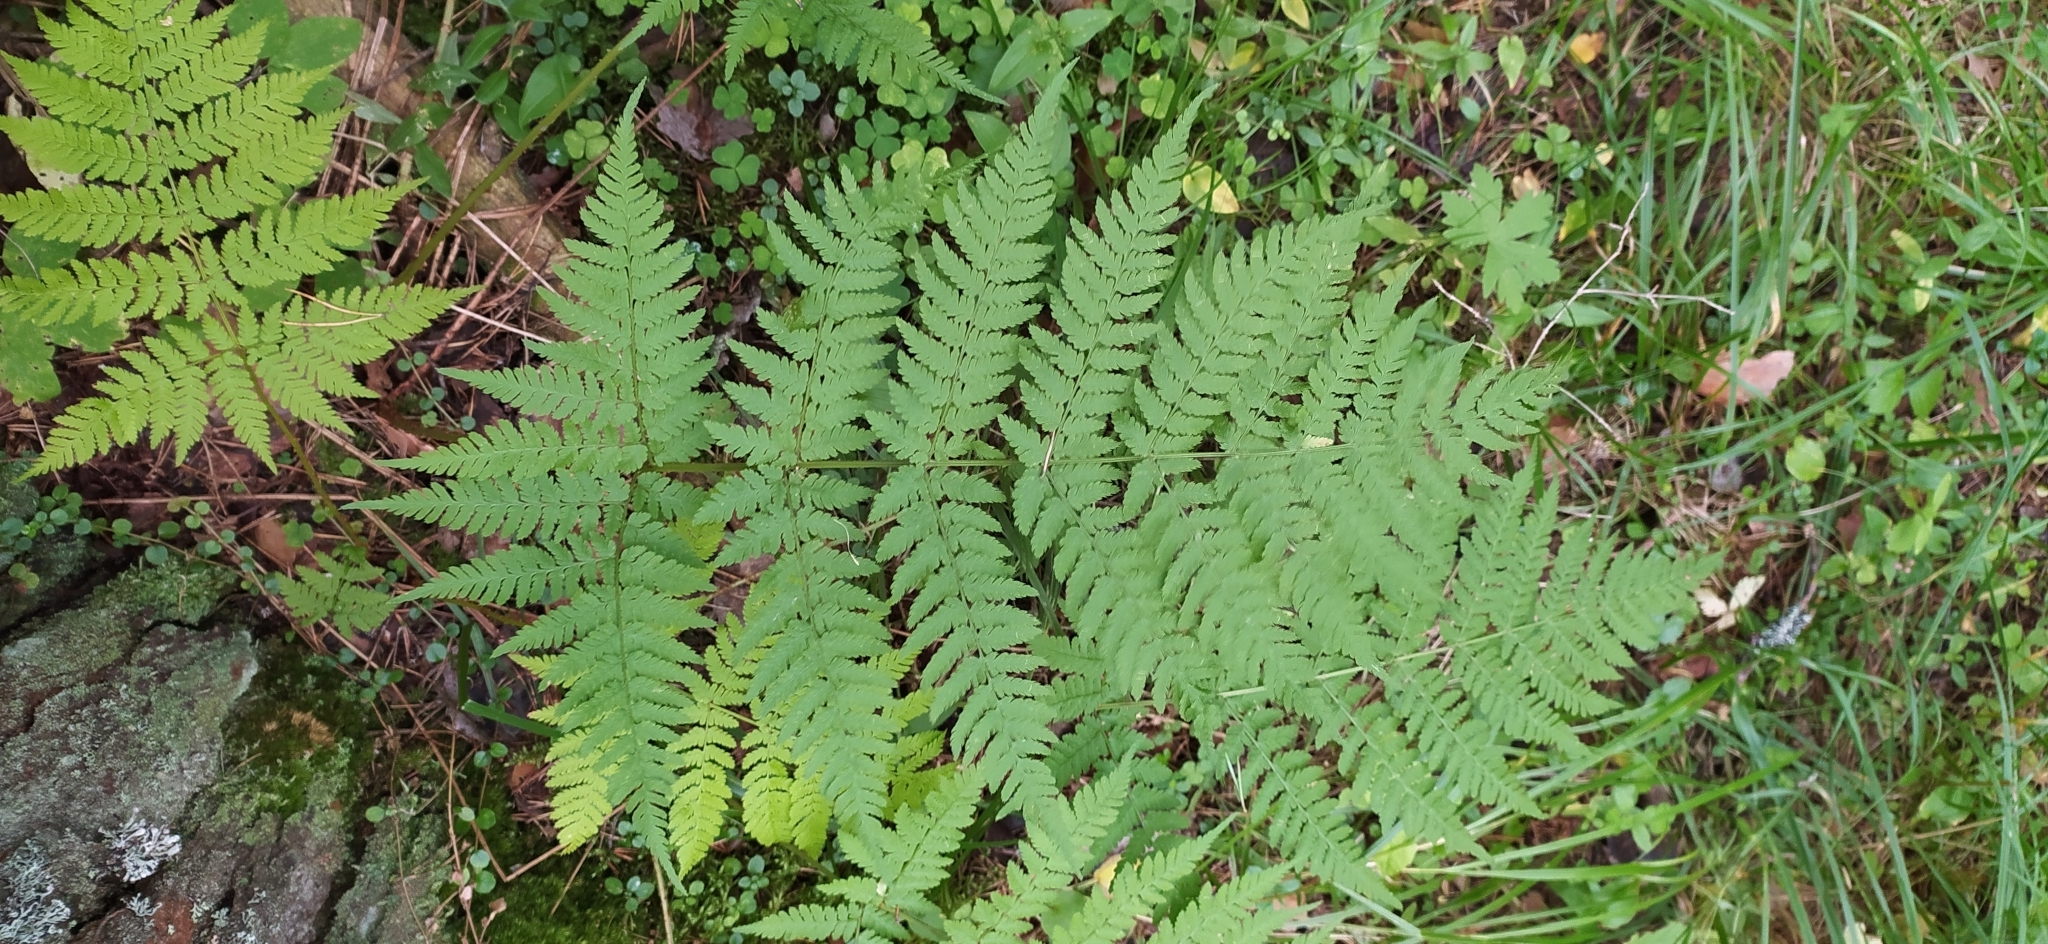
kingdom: Plantae
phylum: Tracheophyta
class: Polypodiopsida
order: Polypodiales
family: Dryopteridaceae
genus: Dryopteris
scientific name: Dryopteris expansa
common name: Northern buckler fern
